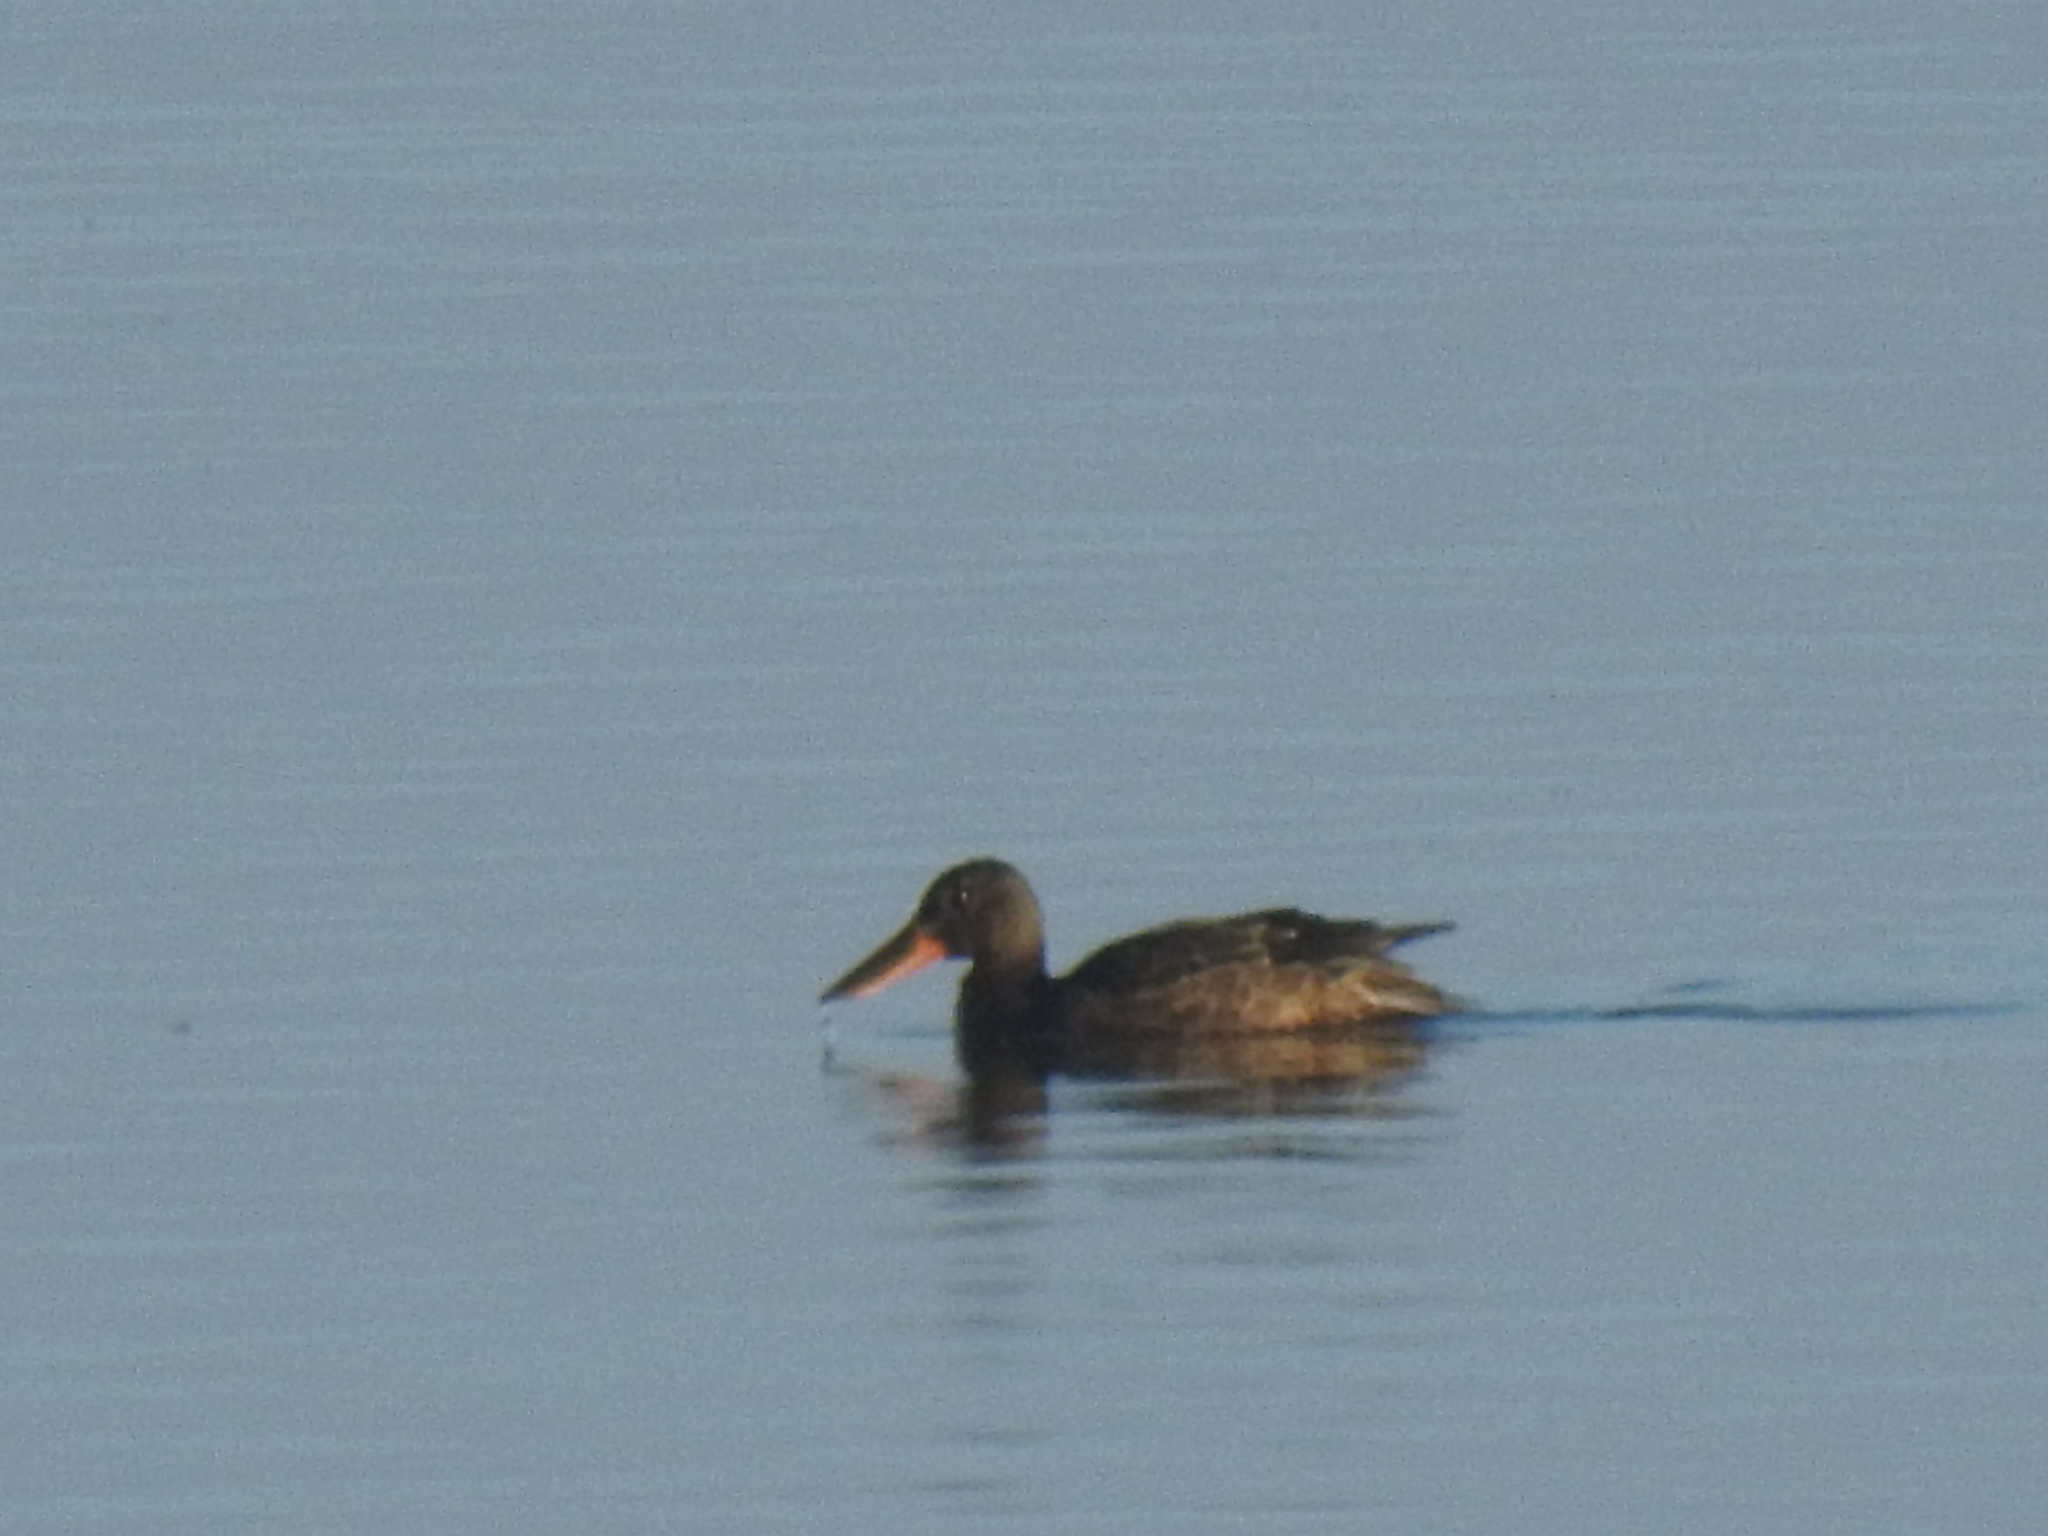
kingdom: Animalia
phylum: Chordata
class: Aves
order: Anseriformes
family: Anatidae
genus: Spatula
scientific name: Spatula clypeata
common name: Northern shoveler
